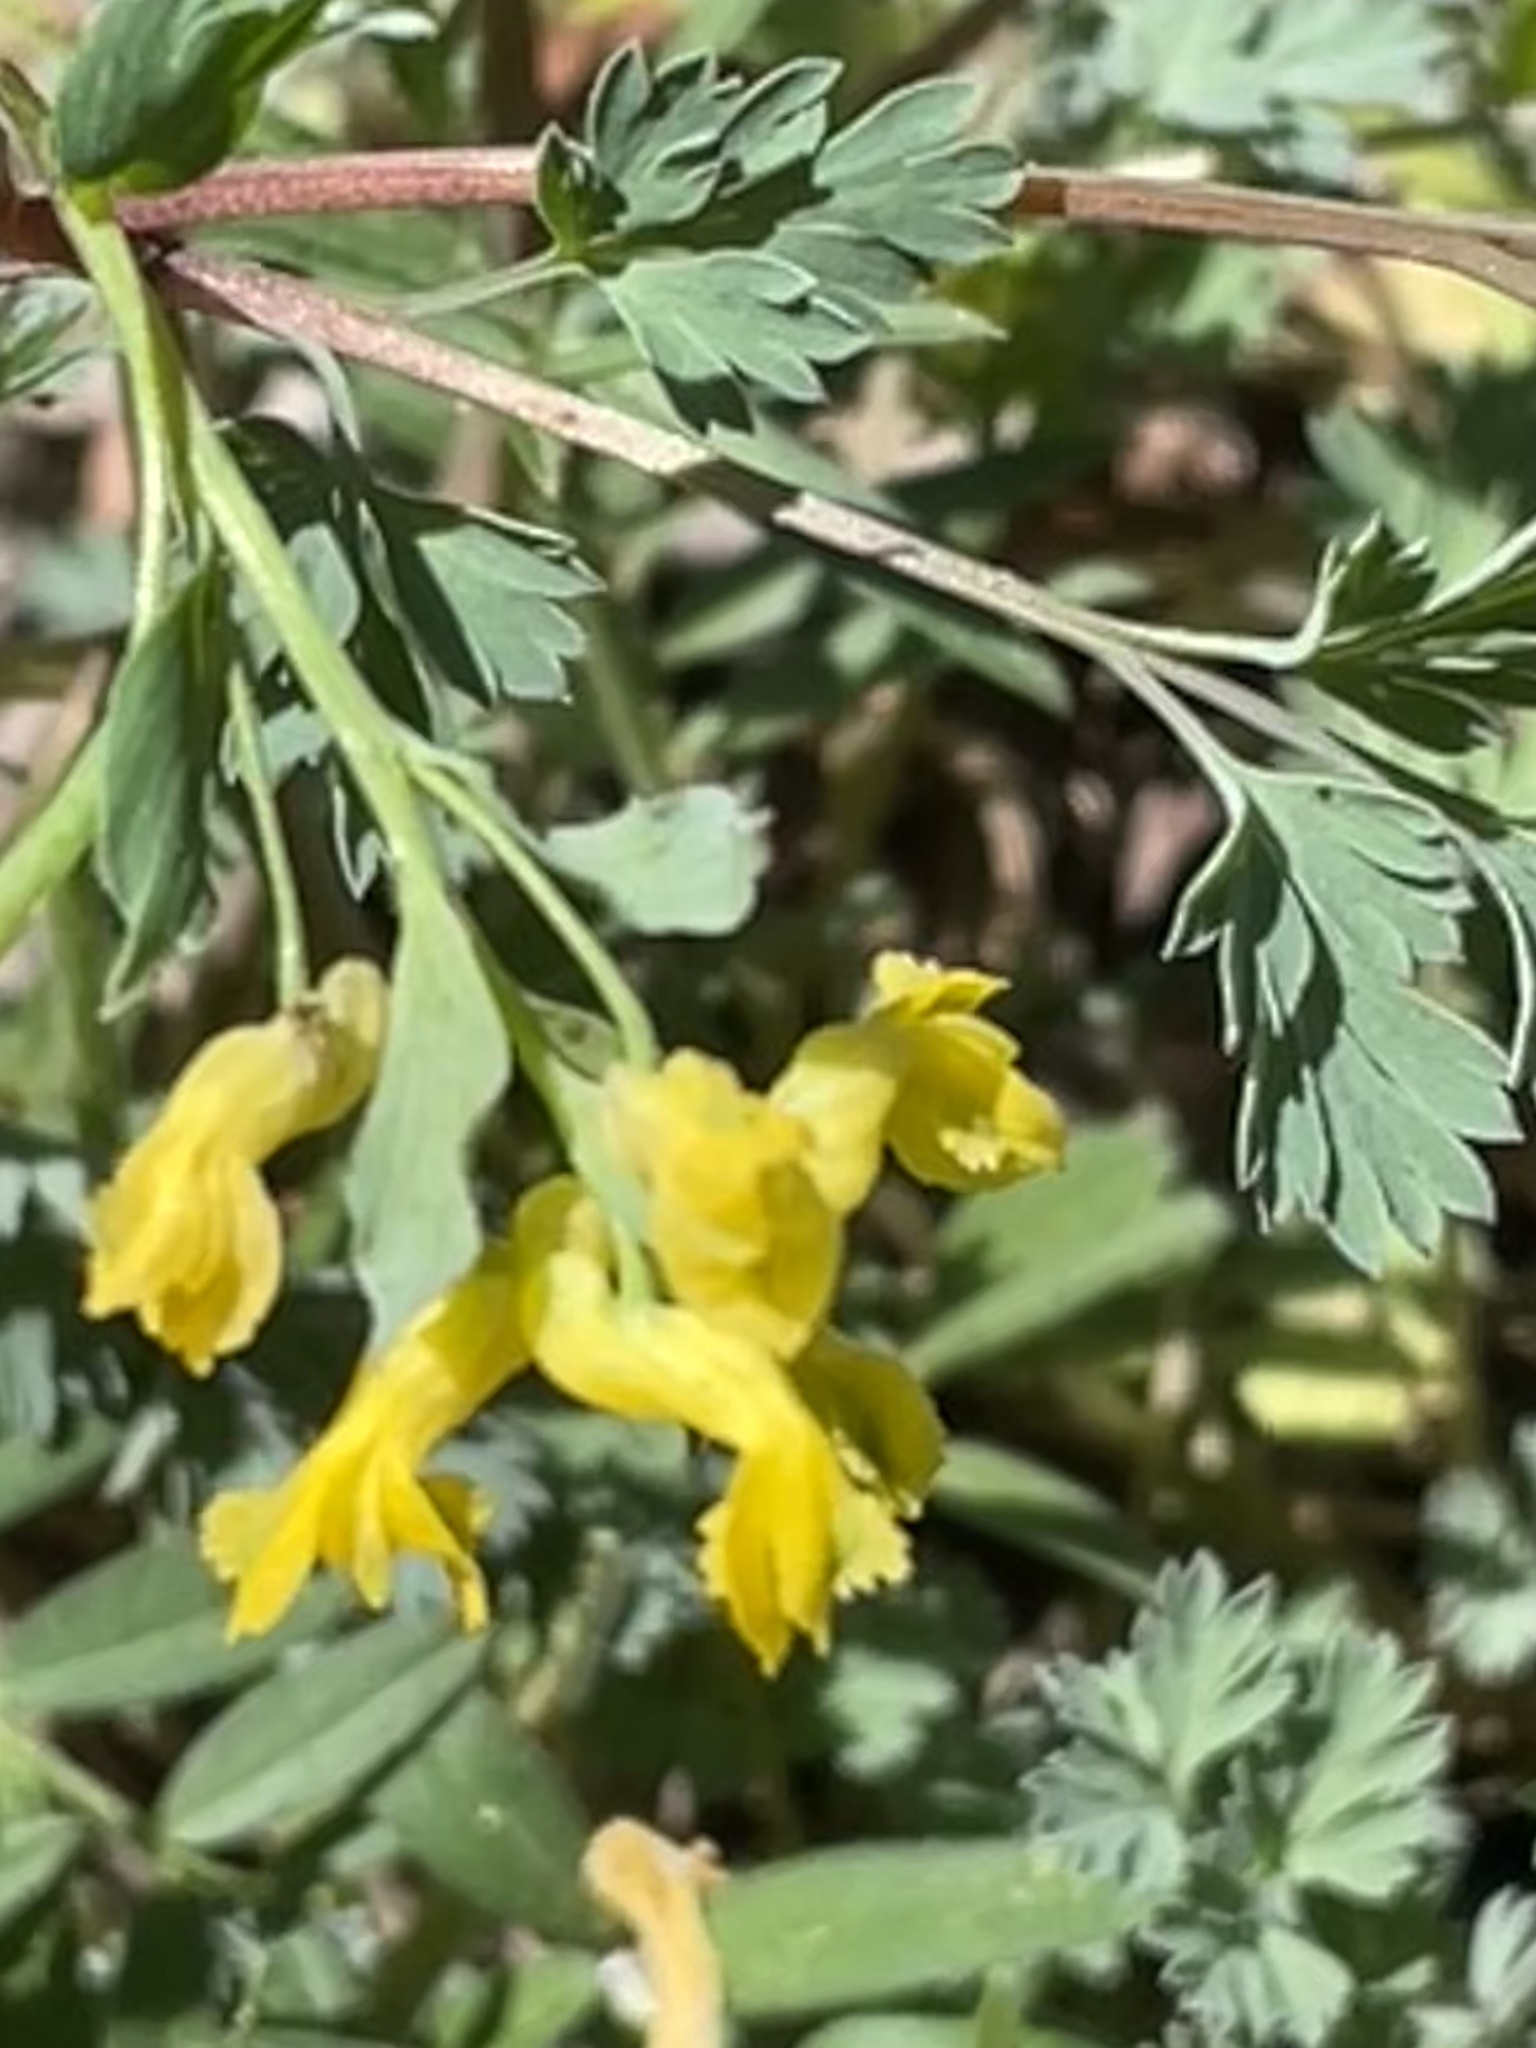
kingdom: Plantae
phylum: Tracheophyta
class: Magnoliopsida
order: Ranunculales
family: Papaveraceae
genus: Corydalis
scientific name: Corydalis flavula
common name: Yellow corydalis
